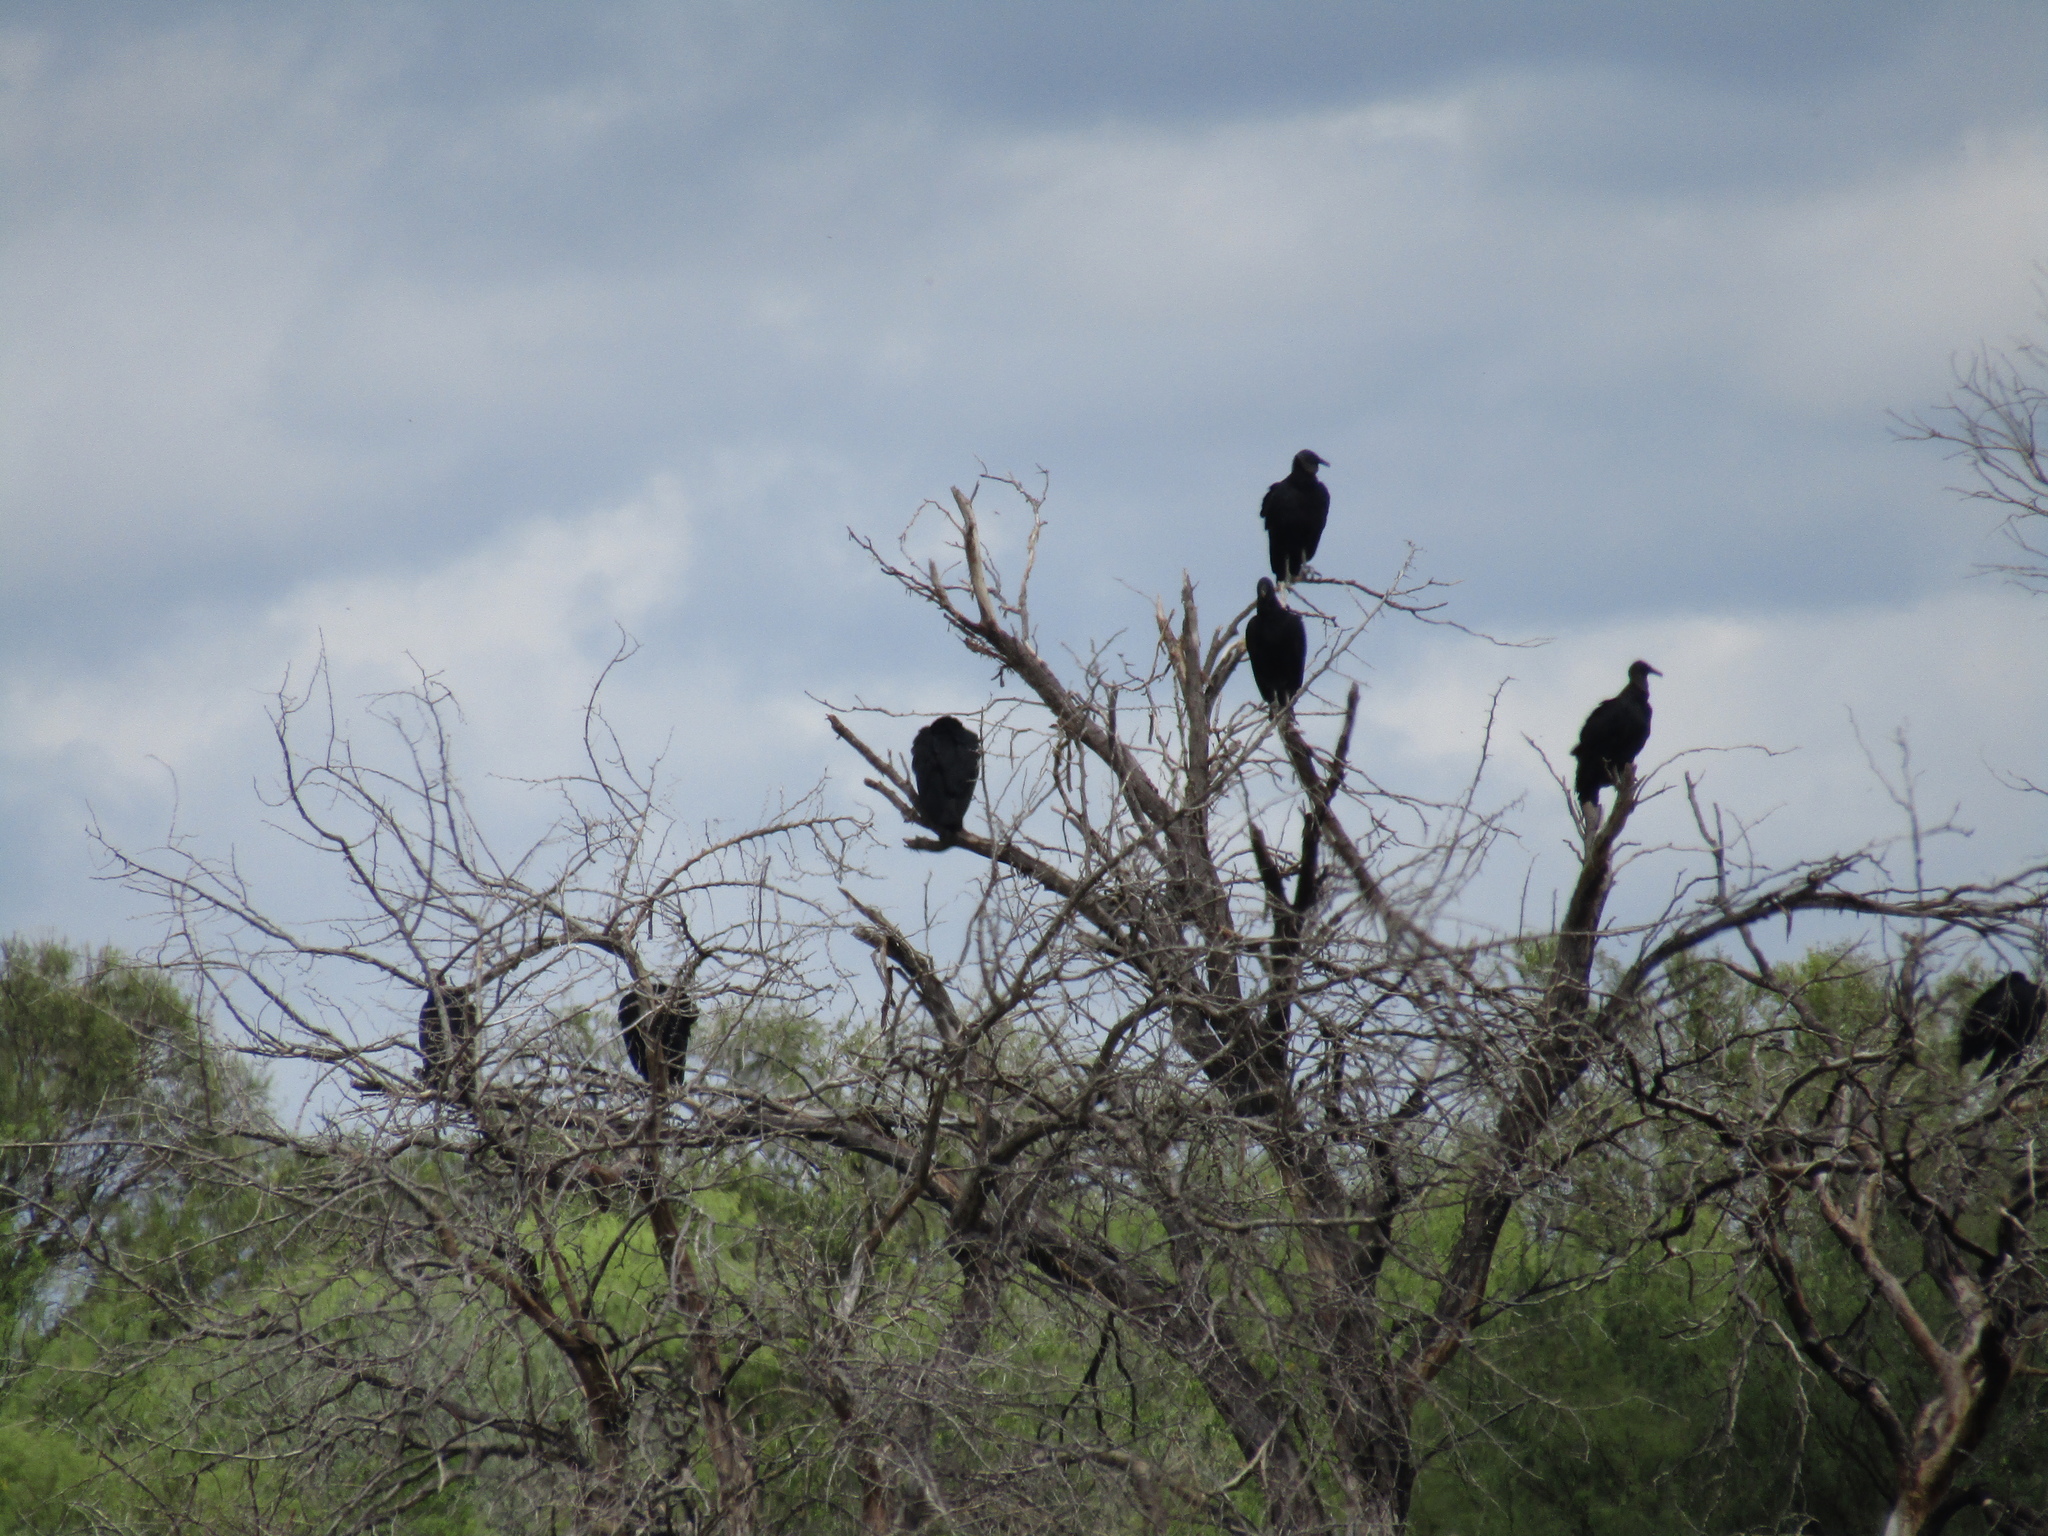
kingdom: Animalia
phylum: Chordata
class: Aves
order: Accipitriformes
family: Cathartidae
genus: Coragyps
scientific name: Coragyps atratus
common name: Black vulture
